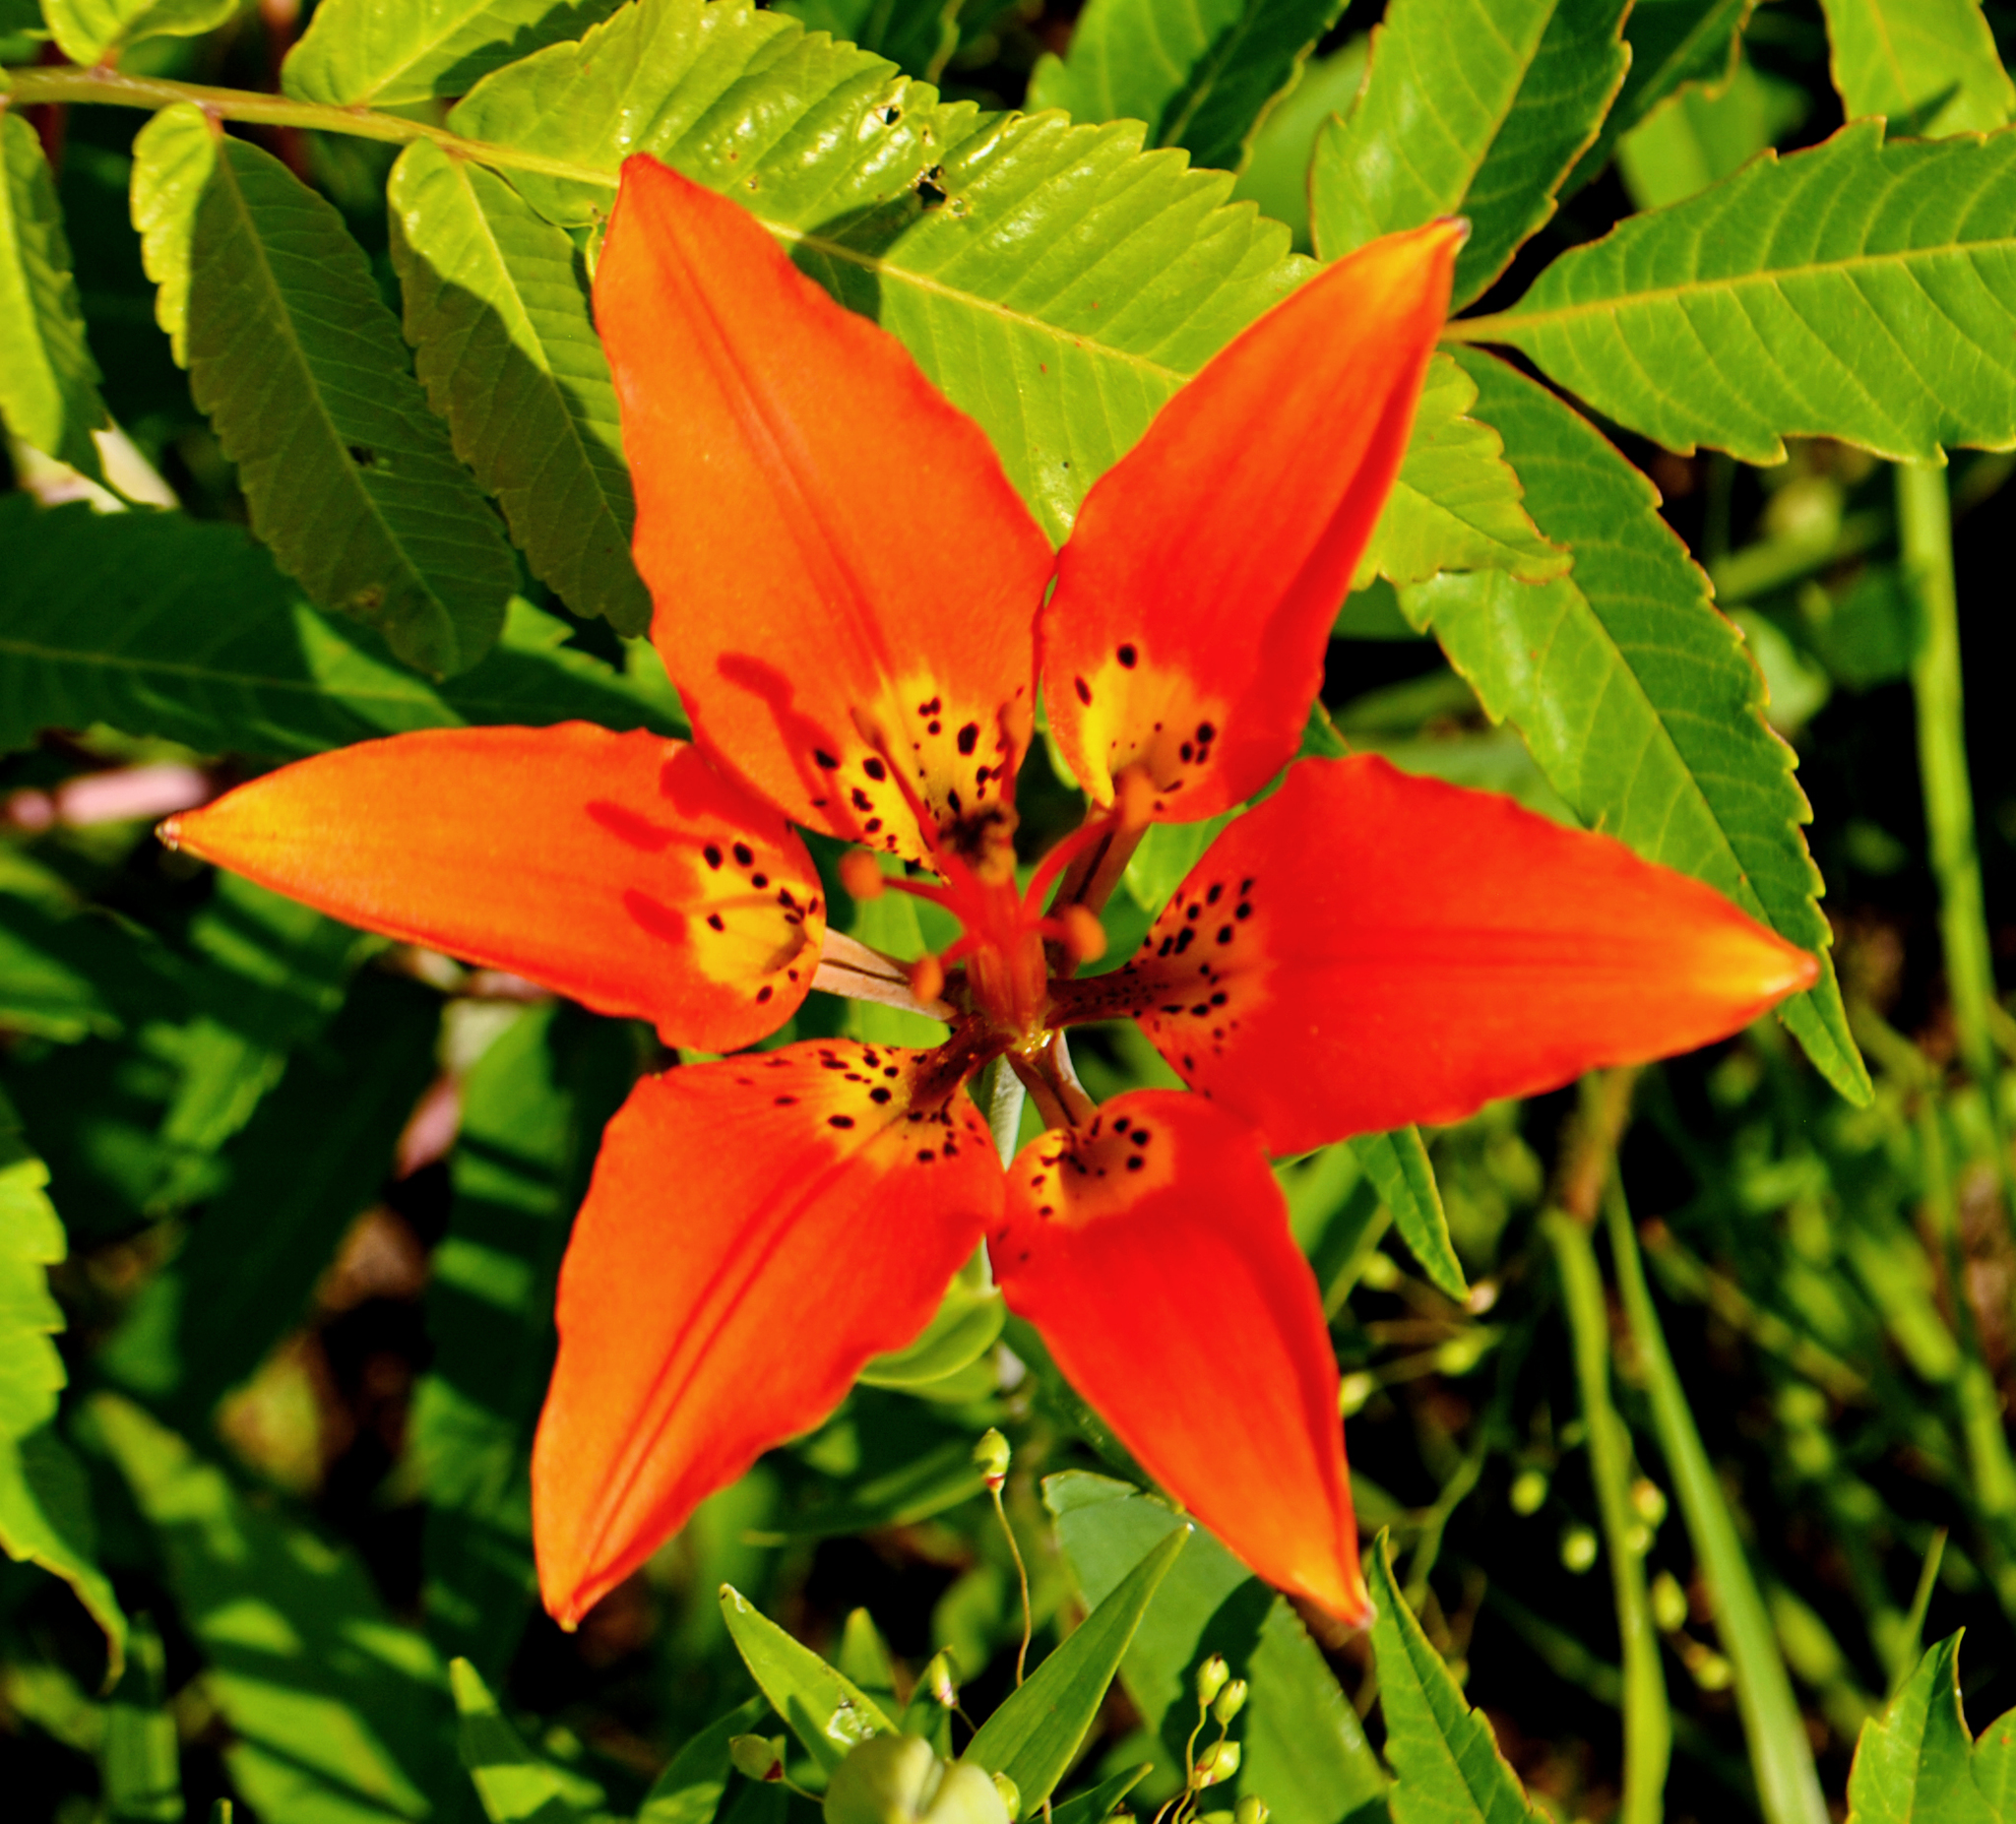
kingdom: Plantae
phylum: Tracheophyta
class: Liliopsida
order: Liliales
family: Liliaceae
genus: Lilium
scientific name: Lilium philadelphicum
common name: Red lily
